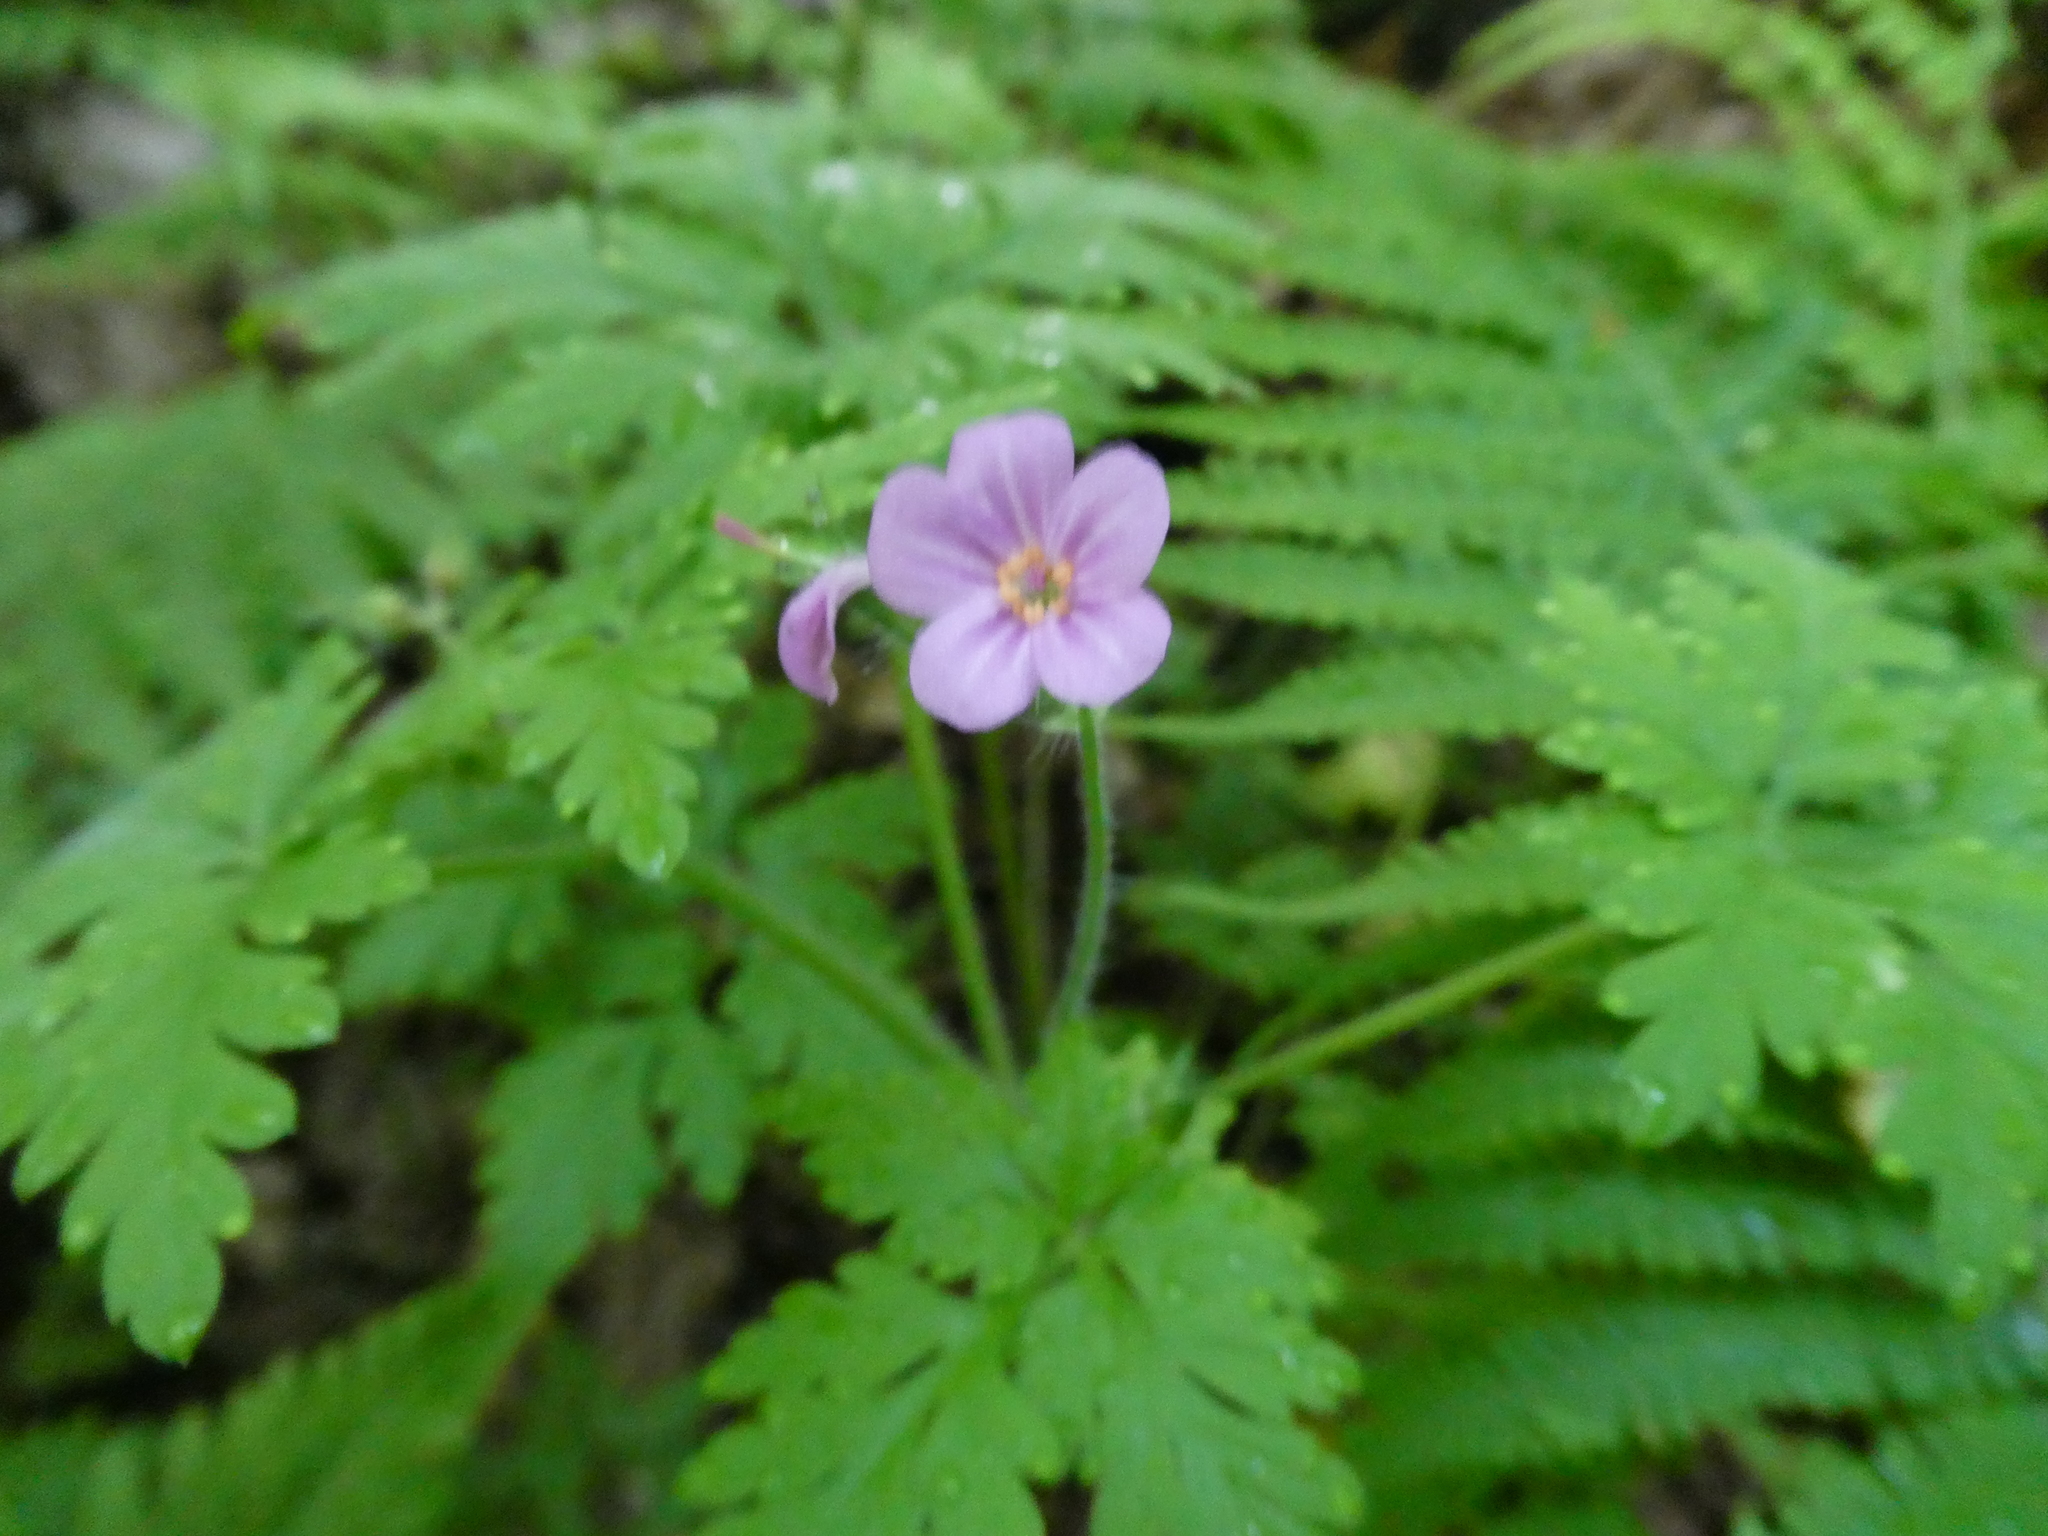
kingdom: Plantae
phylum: Tracheophyta
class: Magnoliopsida
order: Geraniales
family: Geraniaceae
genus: Geranium
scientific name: Geranium robertianum
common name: Herb-robert
